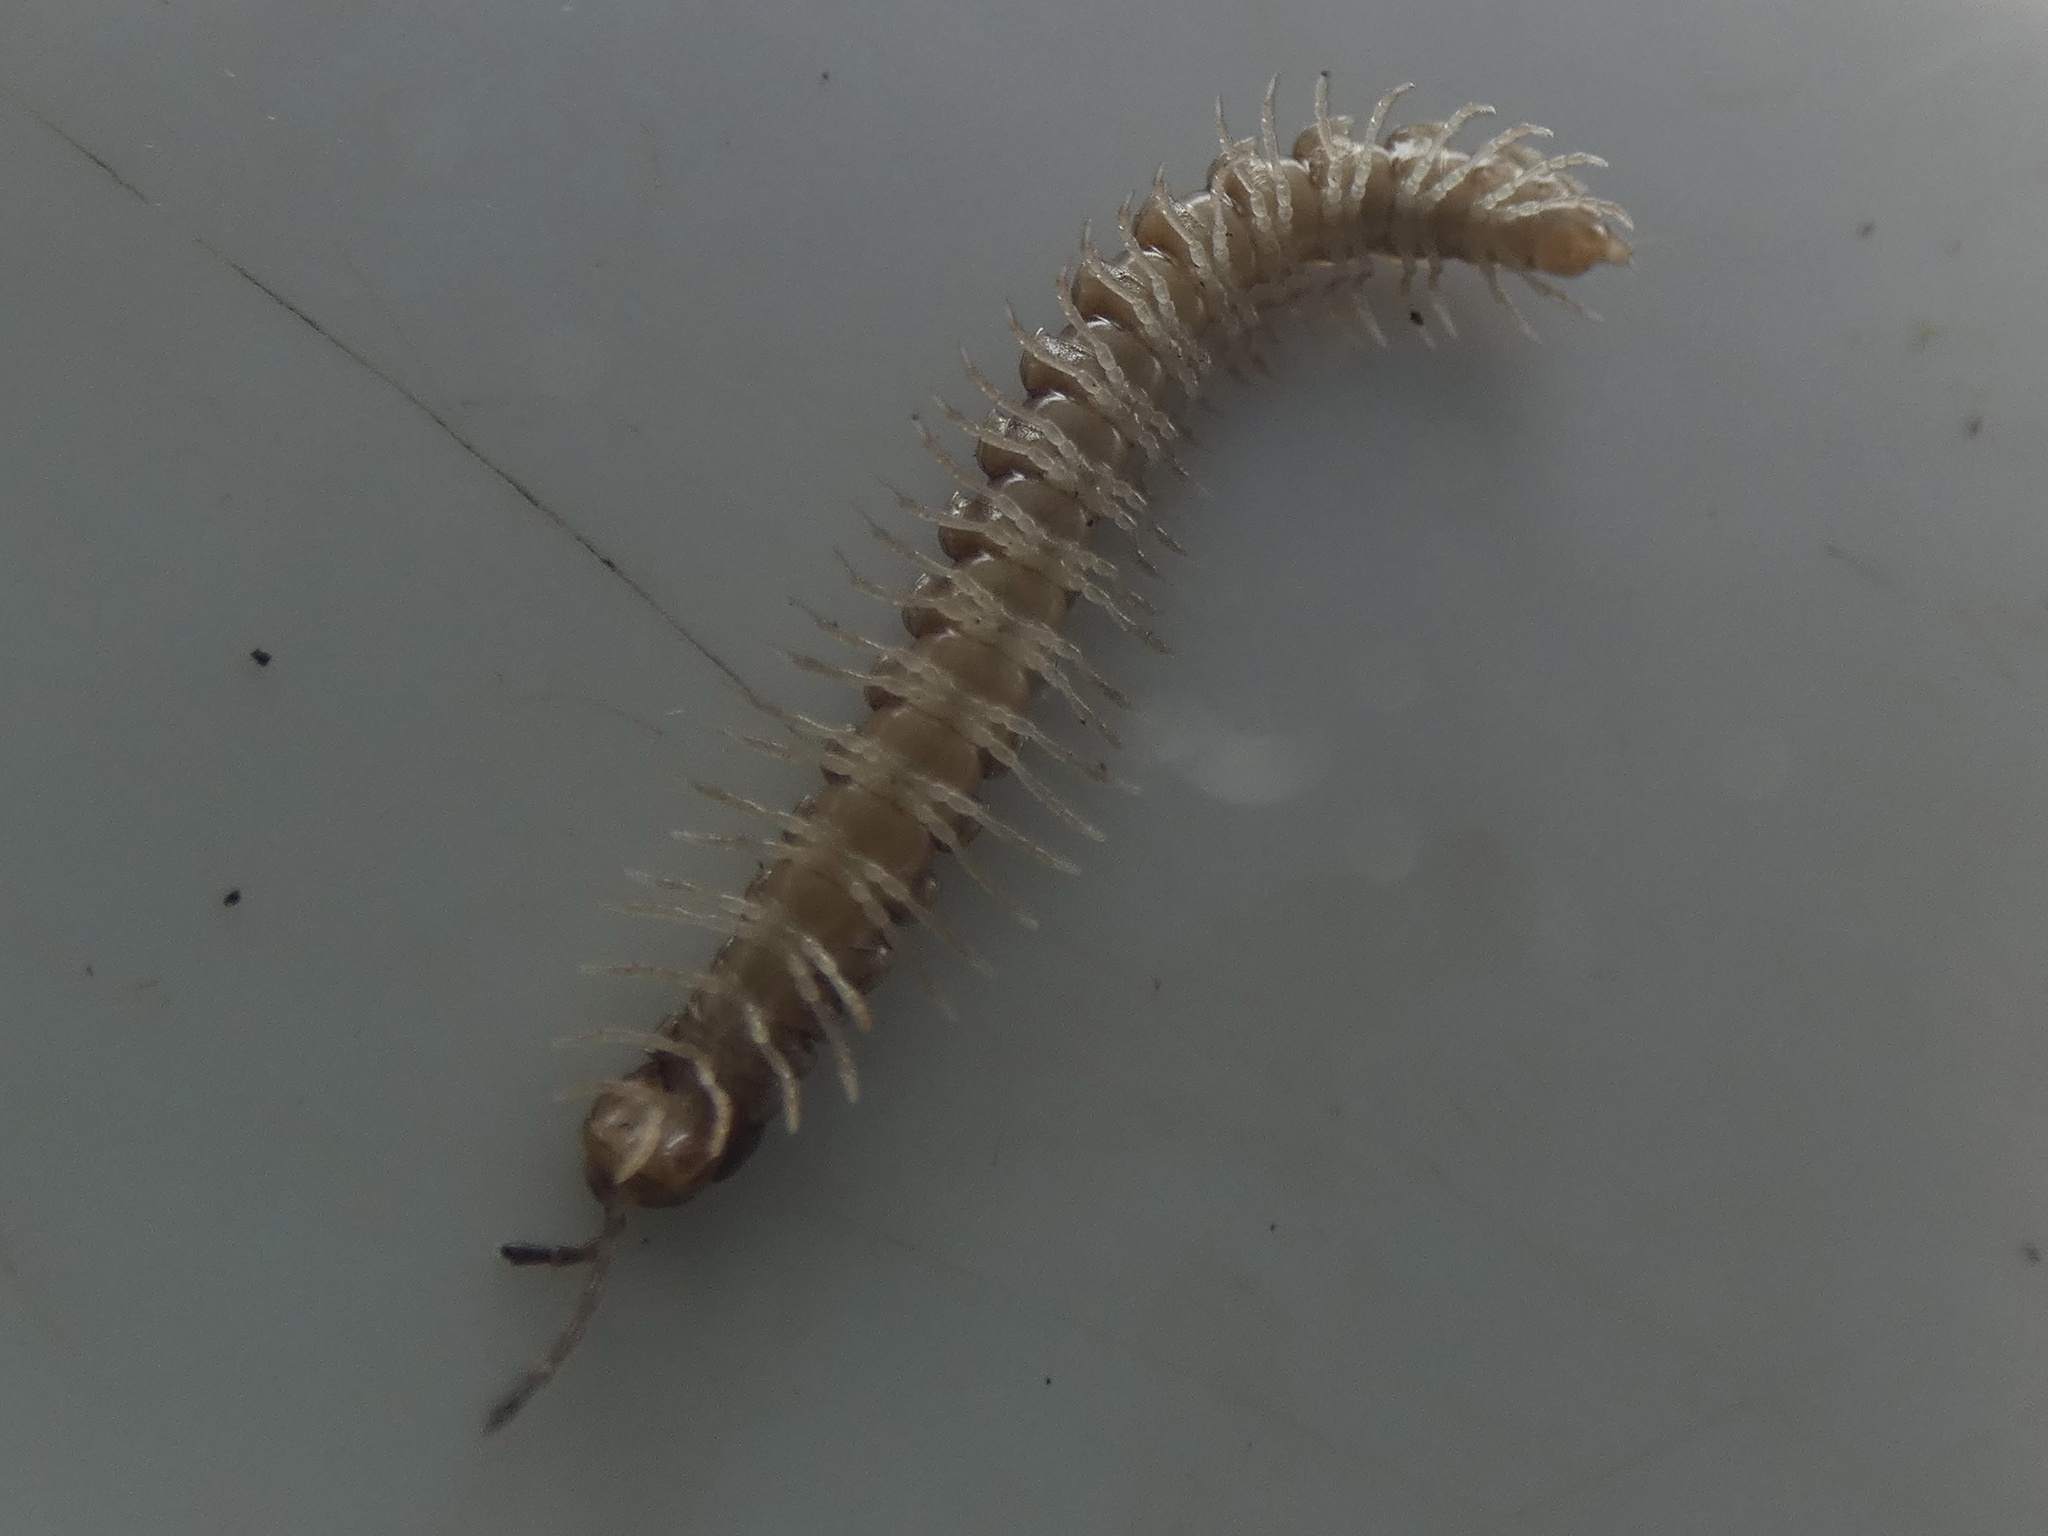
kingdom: Animalia
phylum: Arthropoda
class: Diplopoda
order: Polydesmida
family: Paradoxosomatidae
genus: Oxidus
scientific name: Oxidus gracilis
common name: Greenhouse millipede
